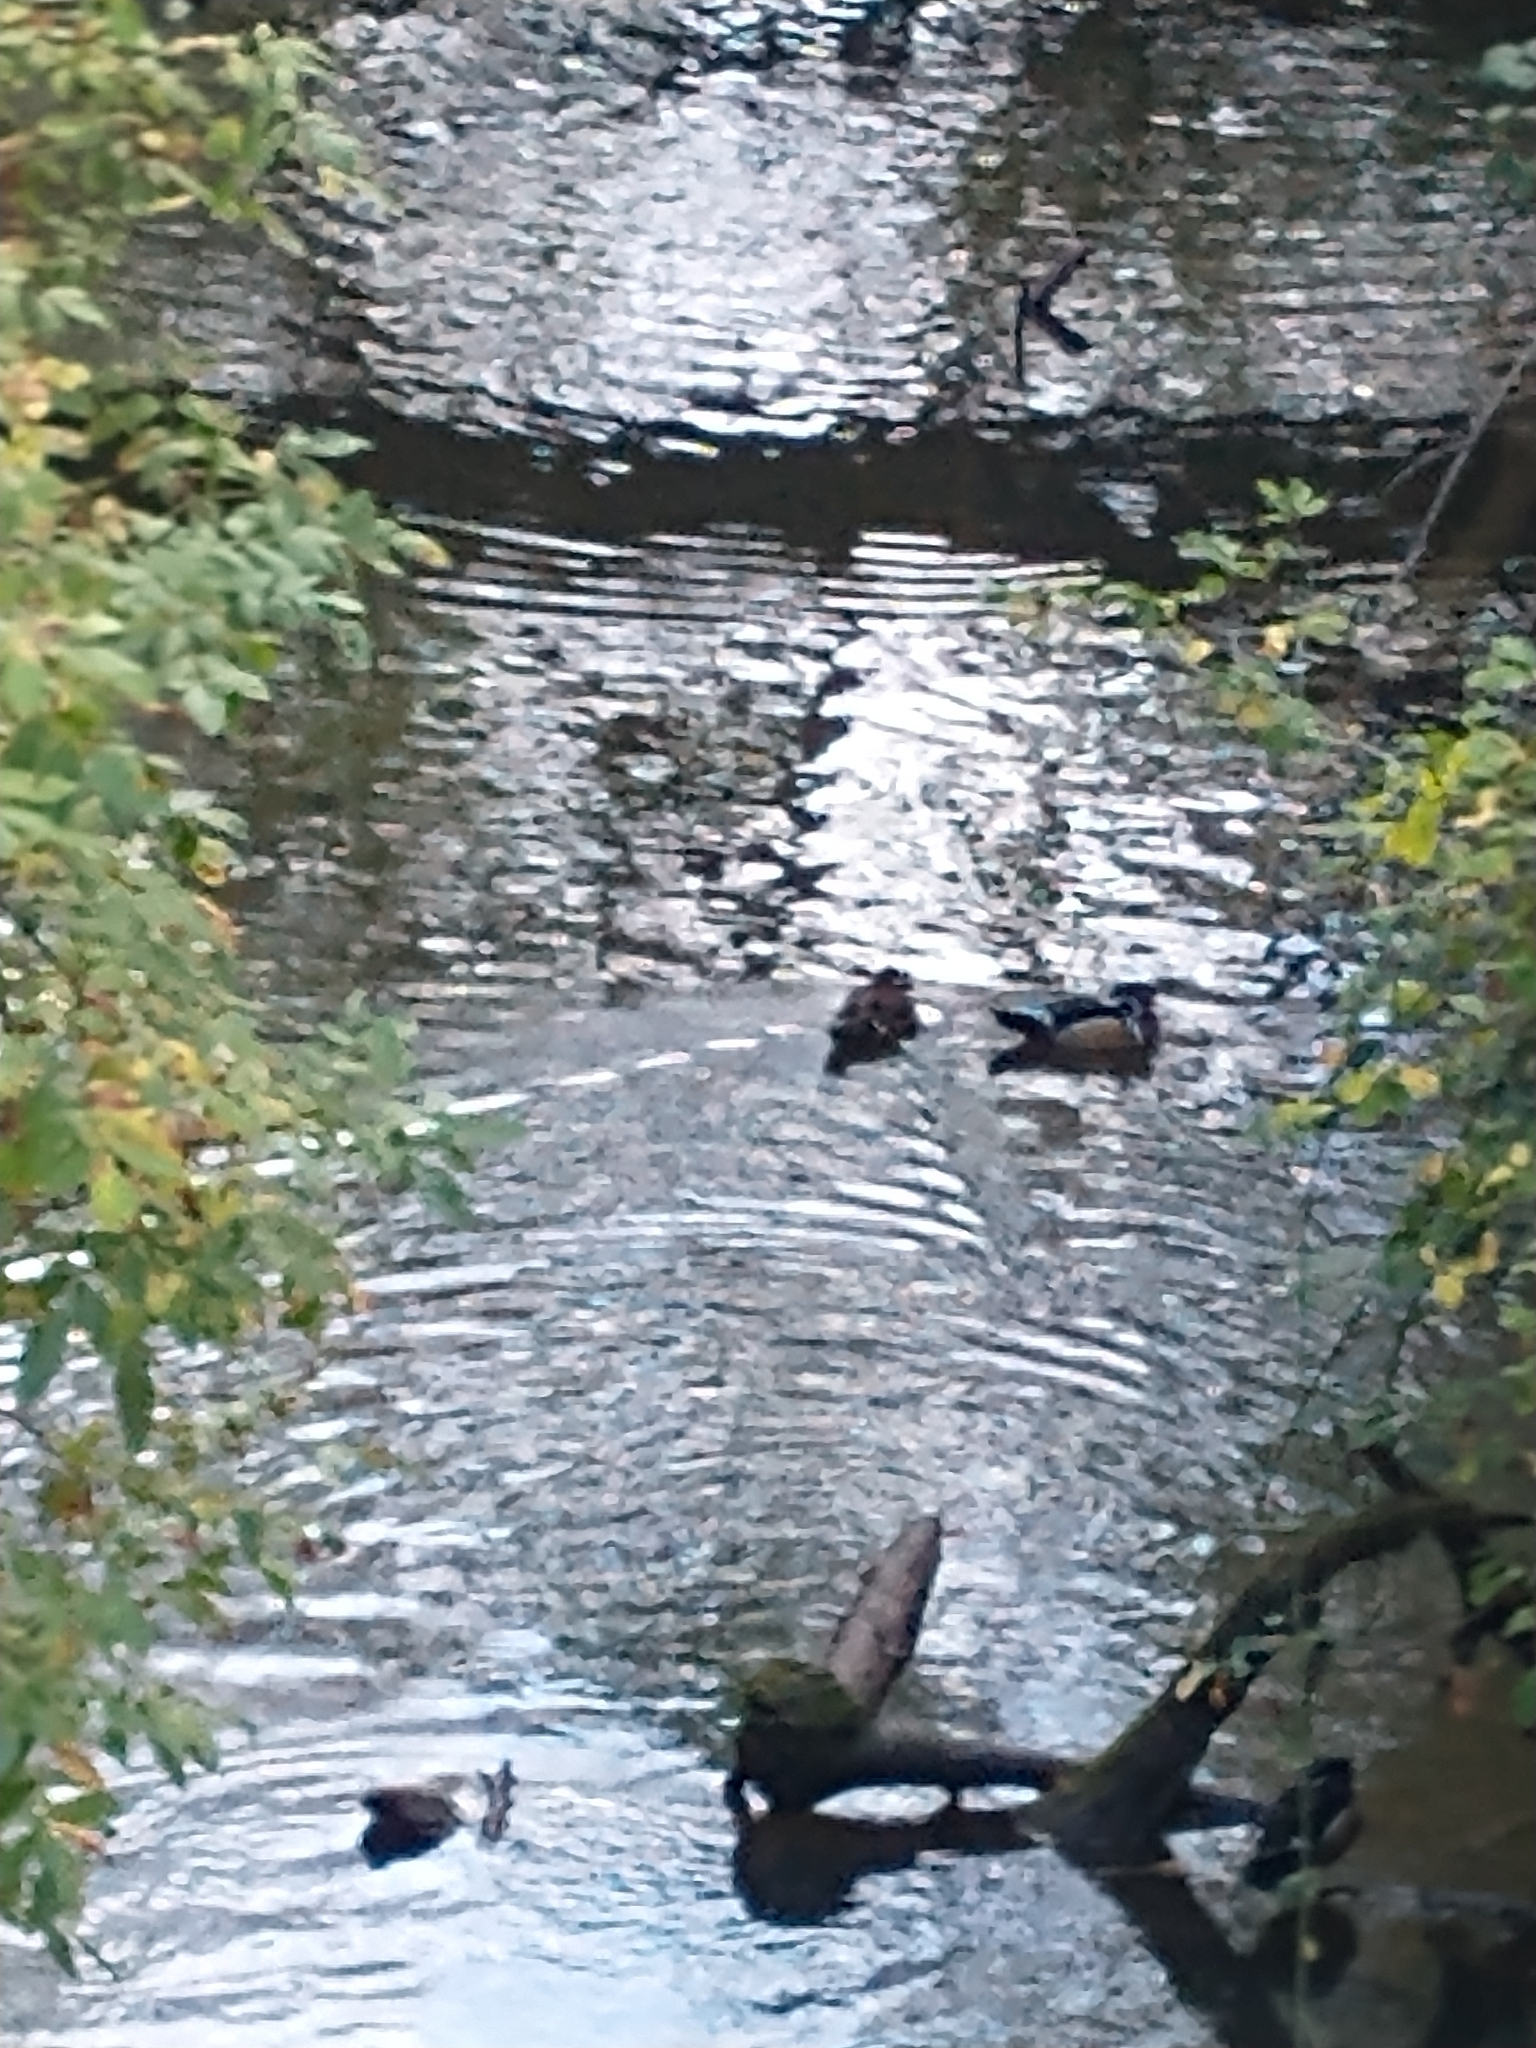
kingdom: Animalia
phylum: Chordata
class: Aves
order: Anseriformes
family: Anatidae
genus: Aix
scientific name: Aix sponsa
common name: Wood duck
